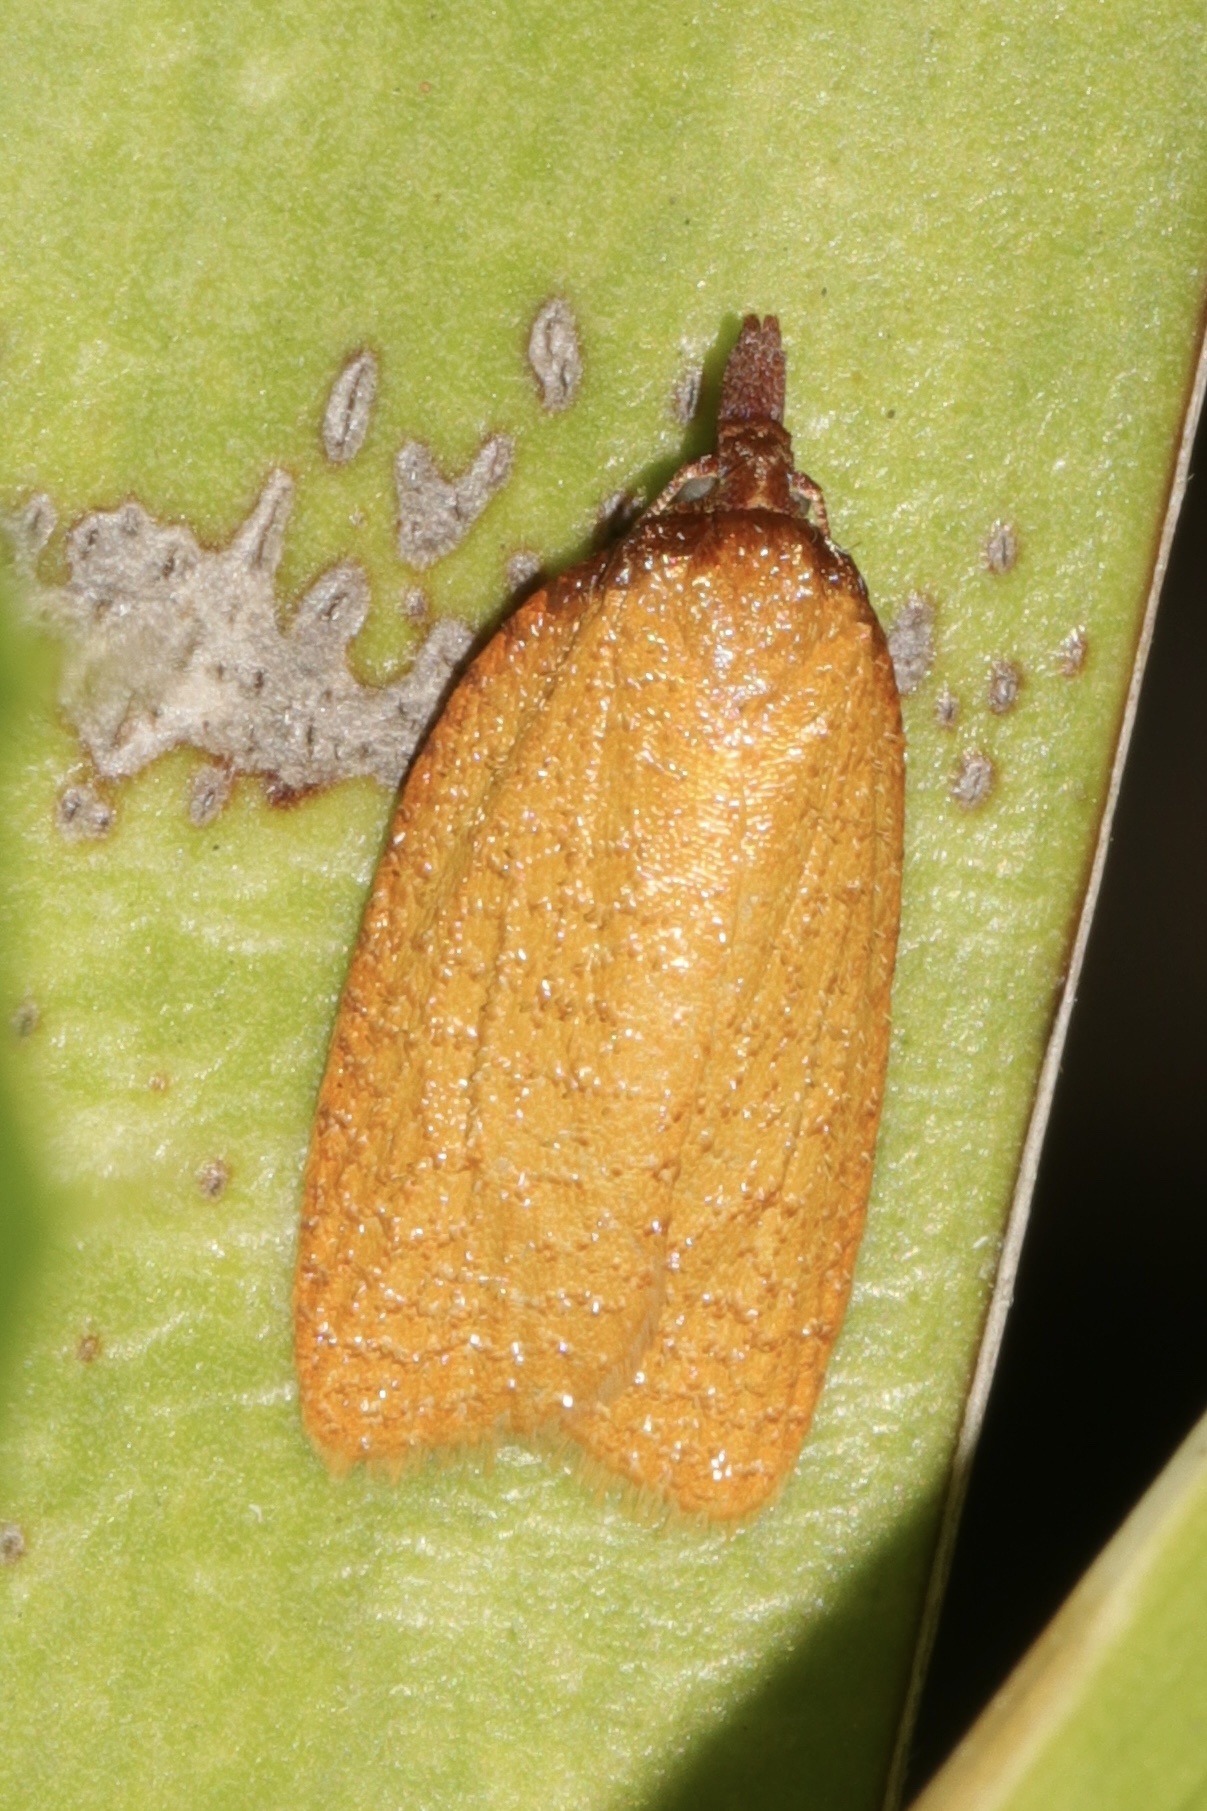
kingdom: Animalia
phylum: Arthropoda
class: Insecta
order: Lepidoptera
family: Tortricidae
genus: Sparganothis
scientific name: Sparganothis distincta
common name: Distinct sparganothis moth
